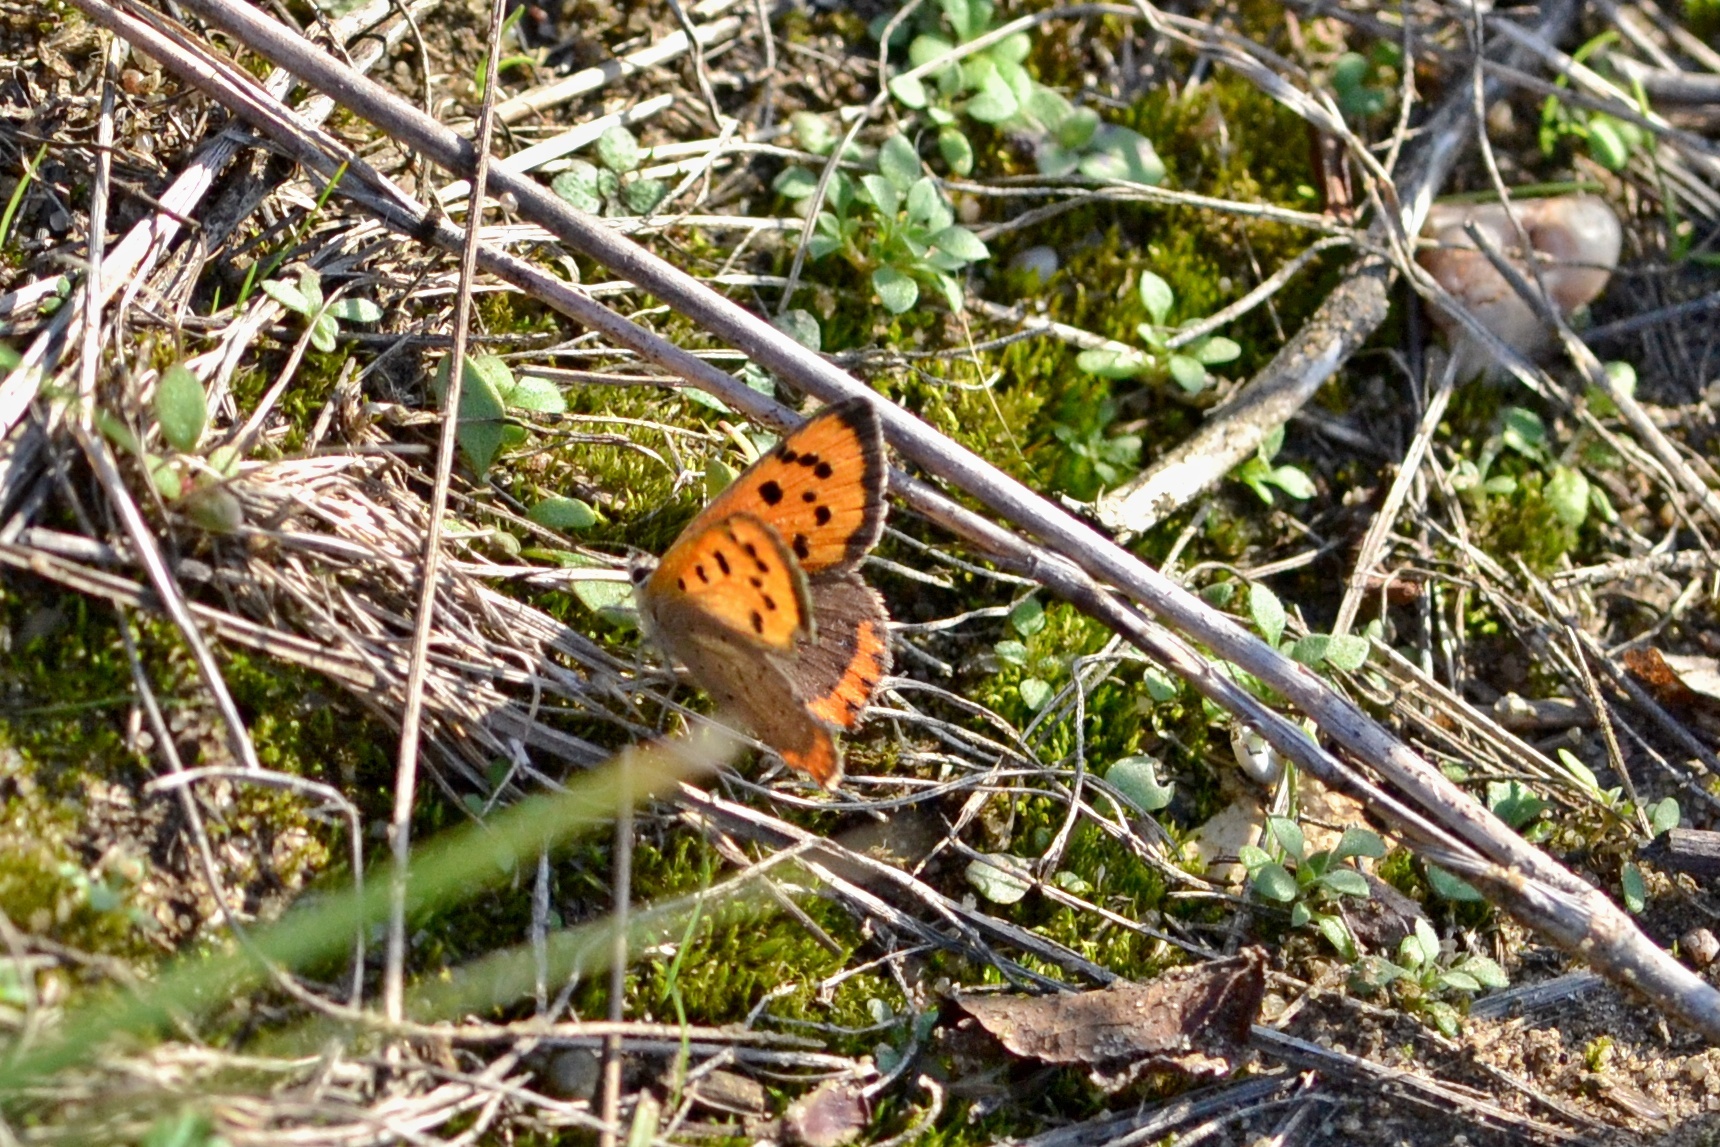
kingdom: Animalia
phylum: Arthropoda
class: Insecta
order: Lepidoptera
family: Lycaenidae
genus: Lycaena
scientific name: Lycaena phlaeas
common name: Small copper
